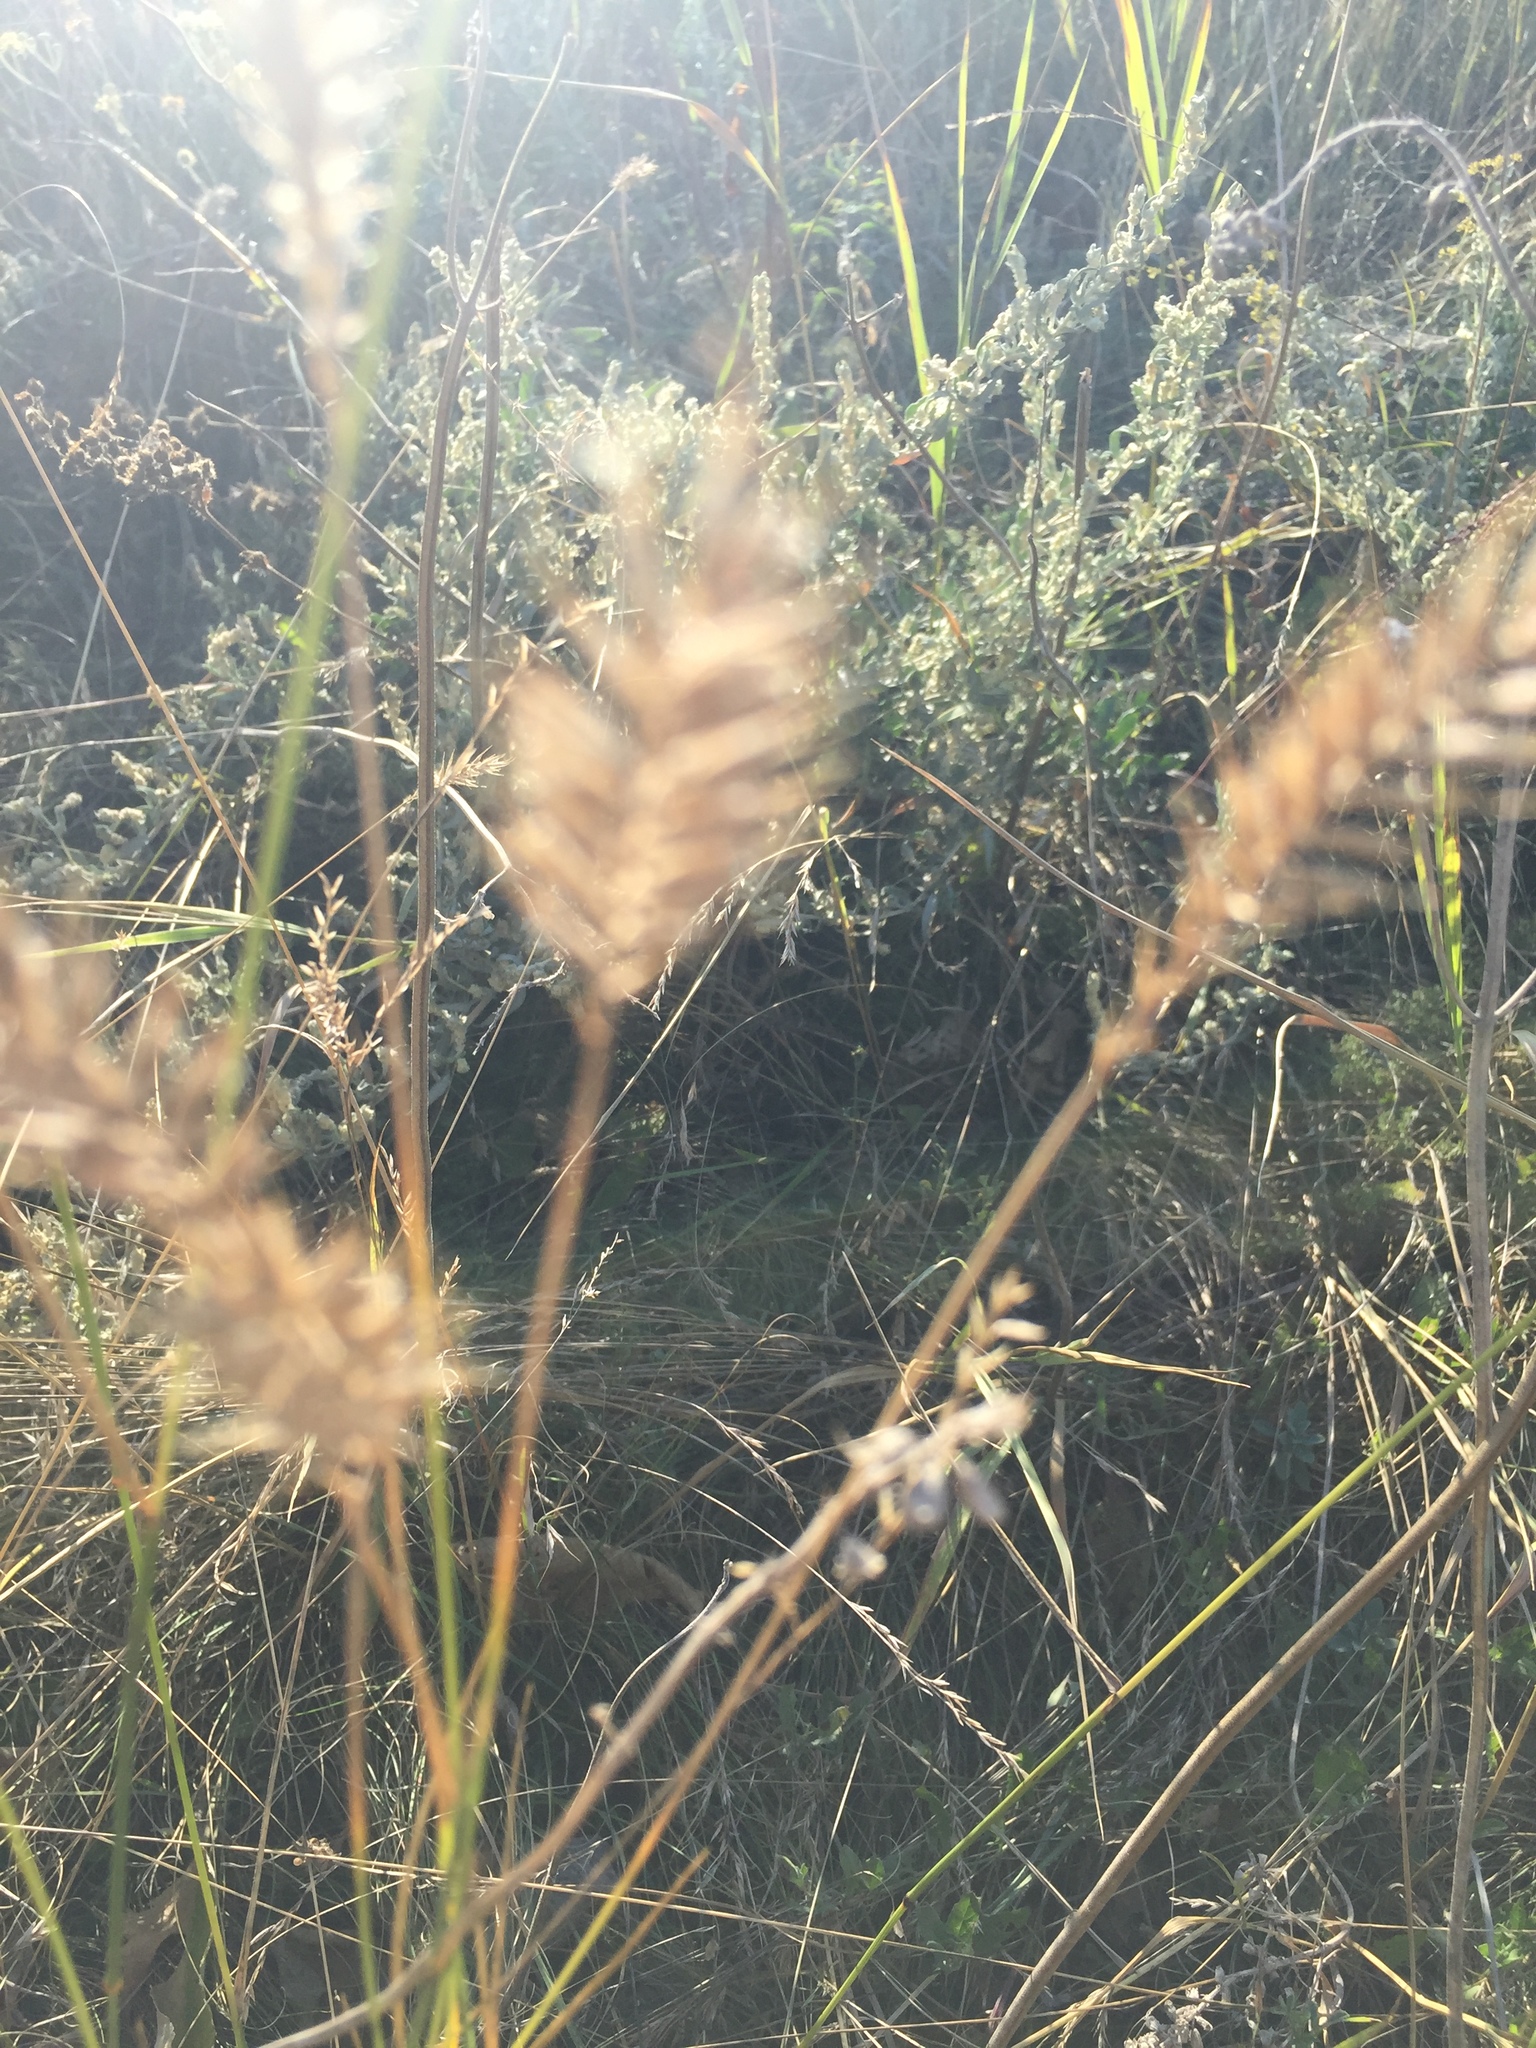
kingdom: Plantae
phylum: Tracheophyta
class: Liliopsida
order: Poales
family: Poaceae
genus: Agropyron
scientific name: Agropyron cristatum
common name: Crested wheatgrass
